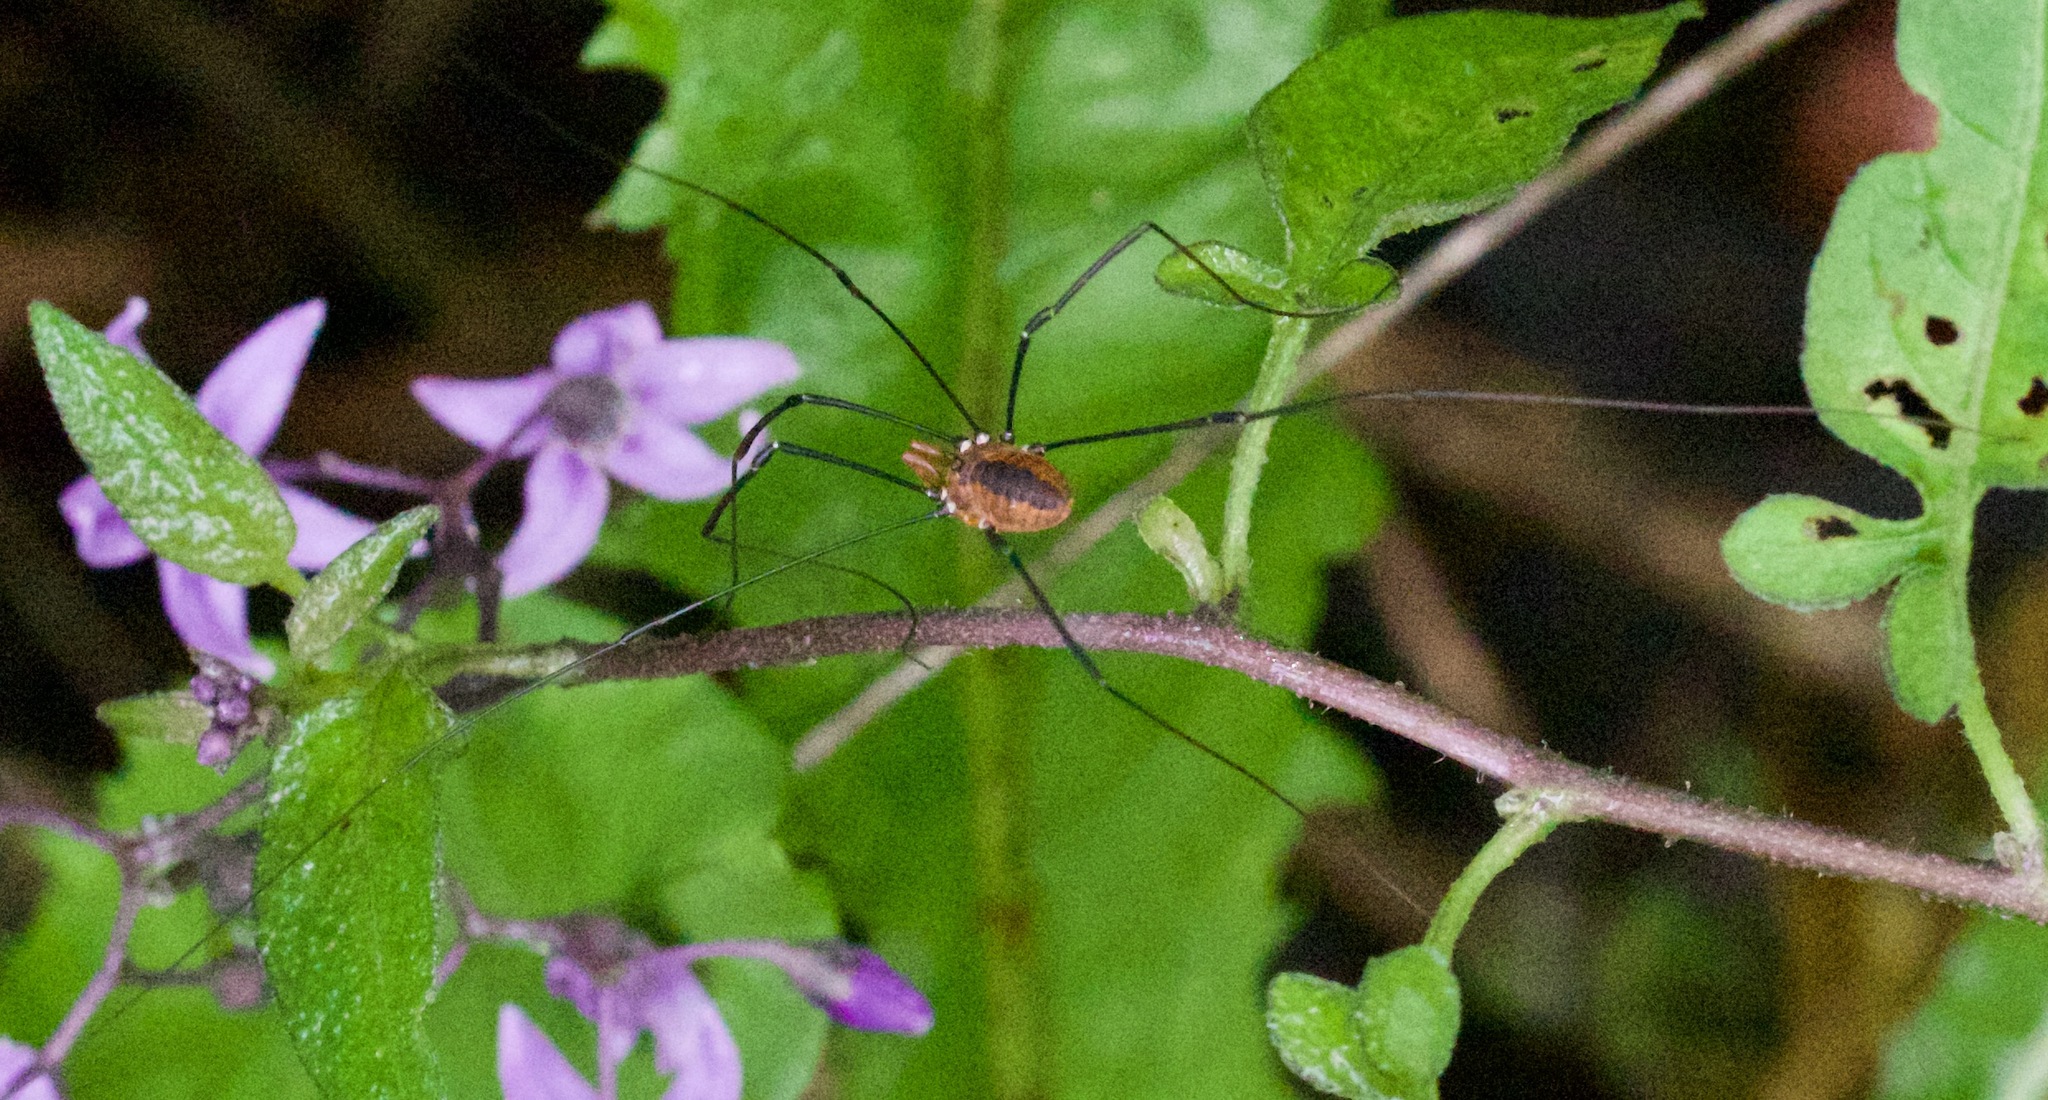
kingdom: Animalia
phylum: Arthropoda
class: Arachnida
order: Opiliones
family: Sclerosomatidae
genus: Leiobunum
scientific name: Leiobunum vittatum
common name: Eastern harvestman
